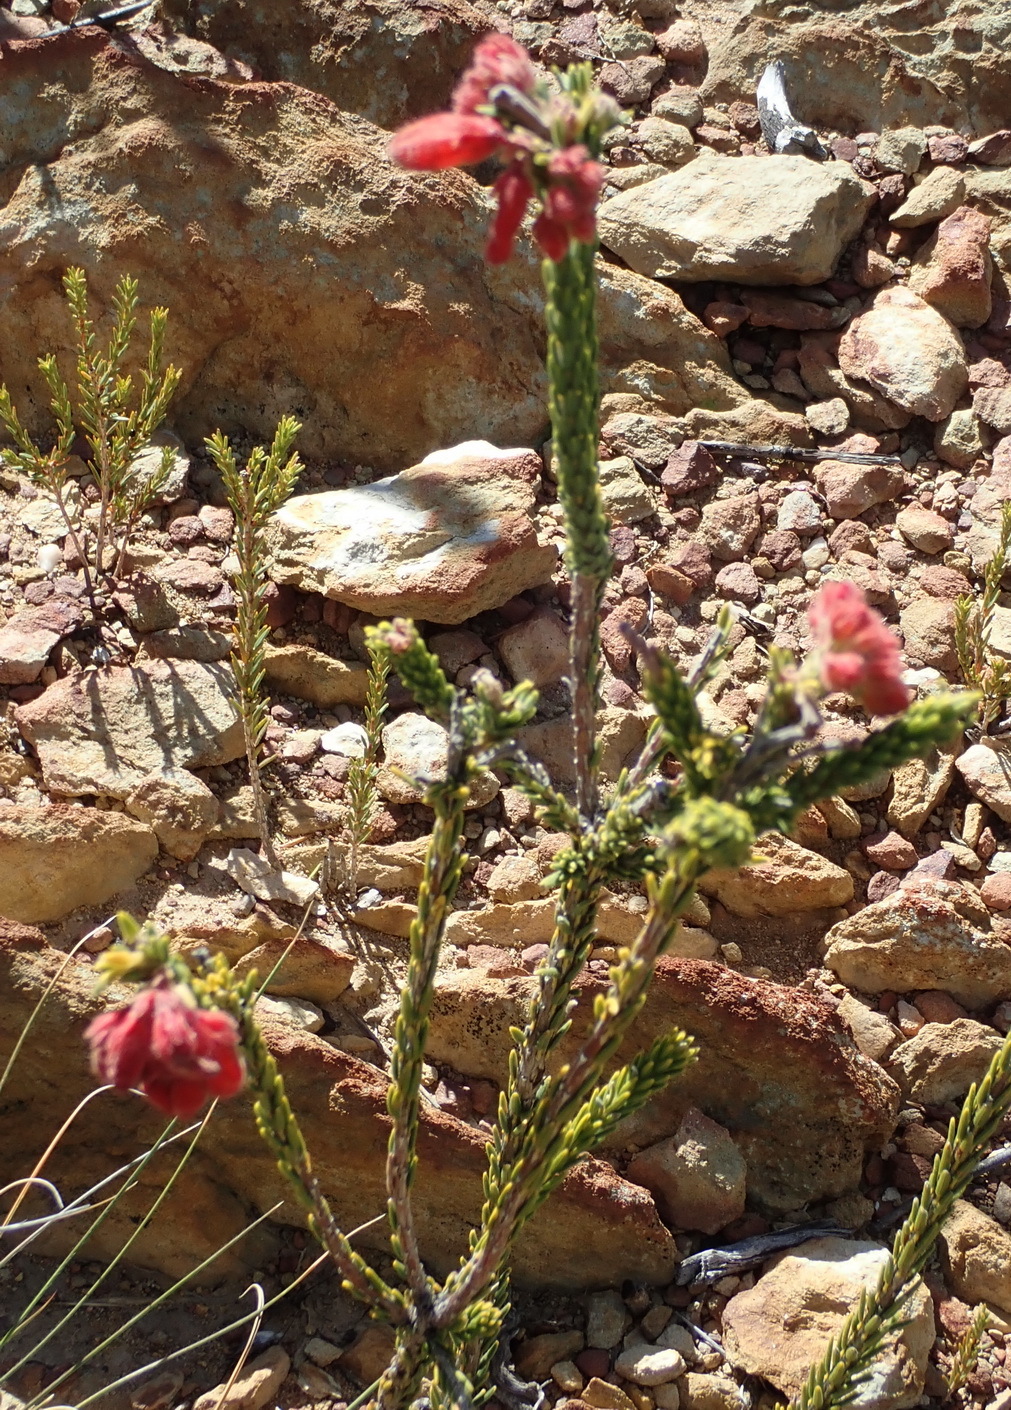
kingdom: Plantae
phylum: Tracheophyta
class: Magnoliopsida
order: Ericales
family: Ericaceae
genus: Erica
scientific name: Erica cerinthoides
